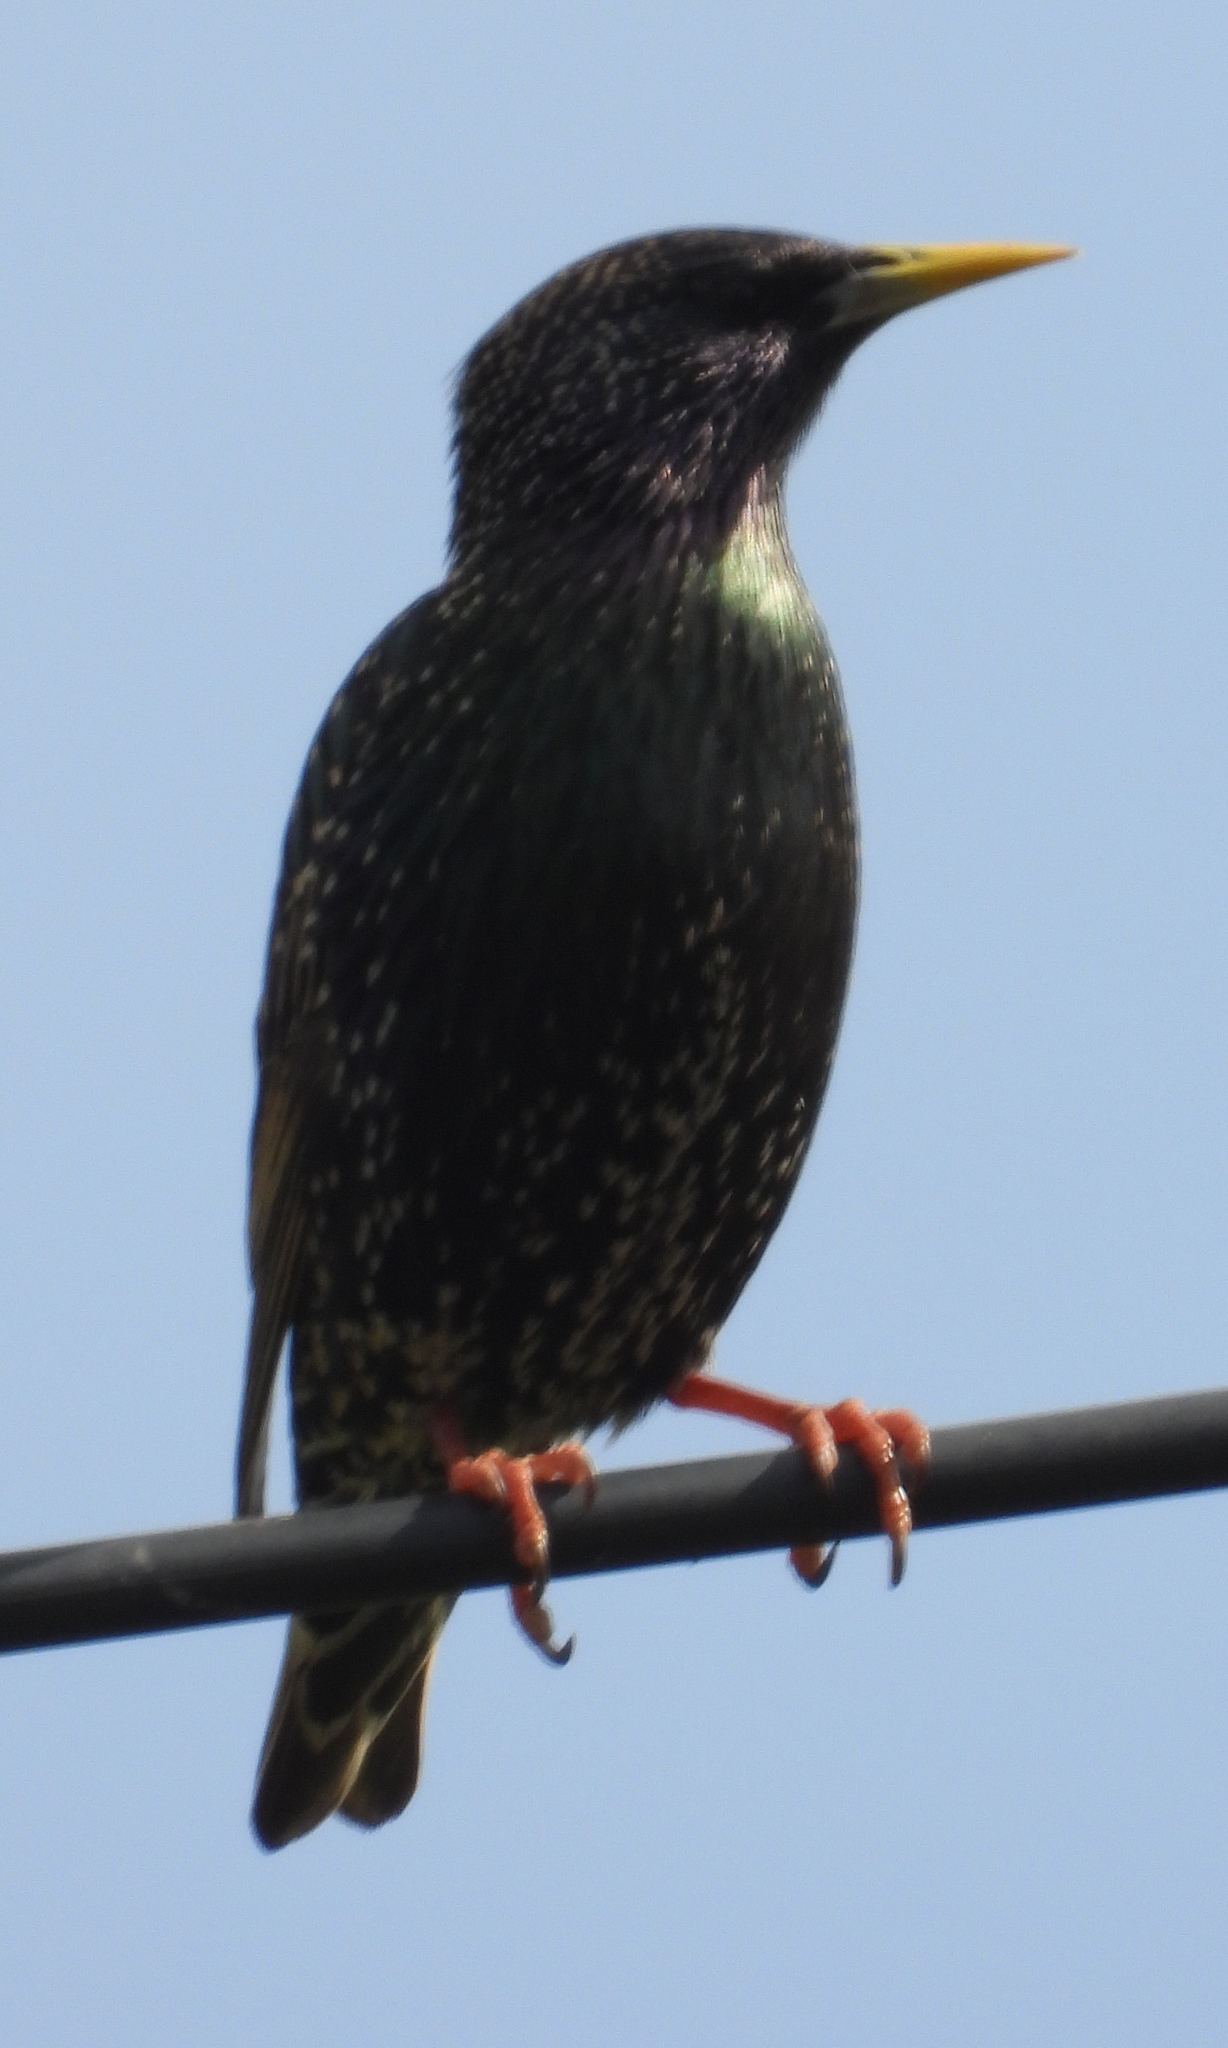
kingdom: Animalia
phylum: Chordata
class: Aves
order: Passeriformes
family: Sturnidae
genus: Sturnus
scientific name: Sturnus vulgaris
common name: Common starling
